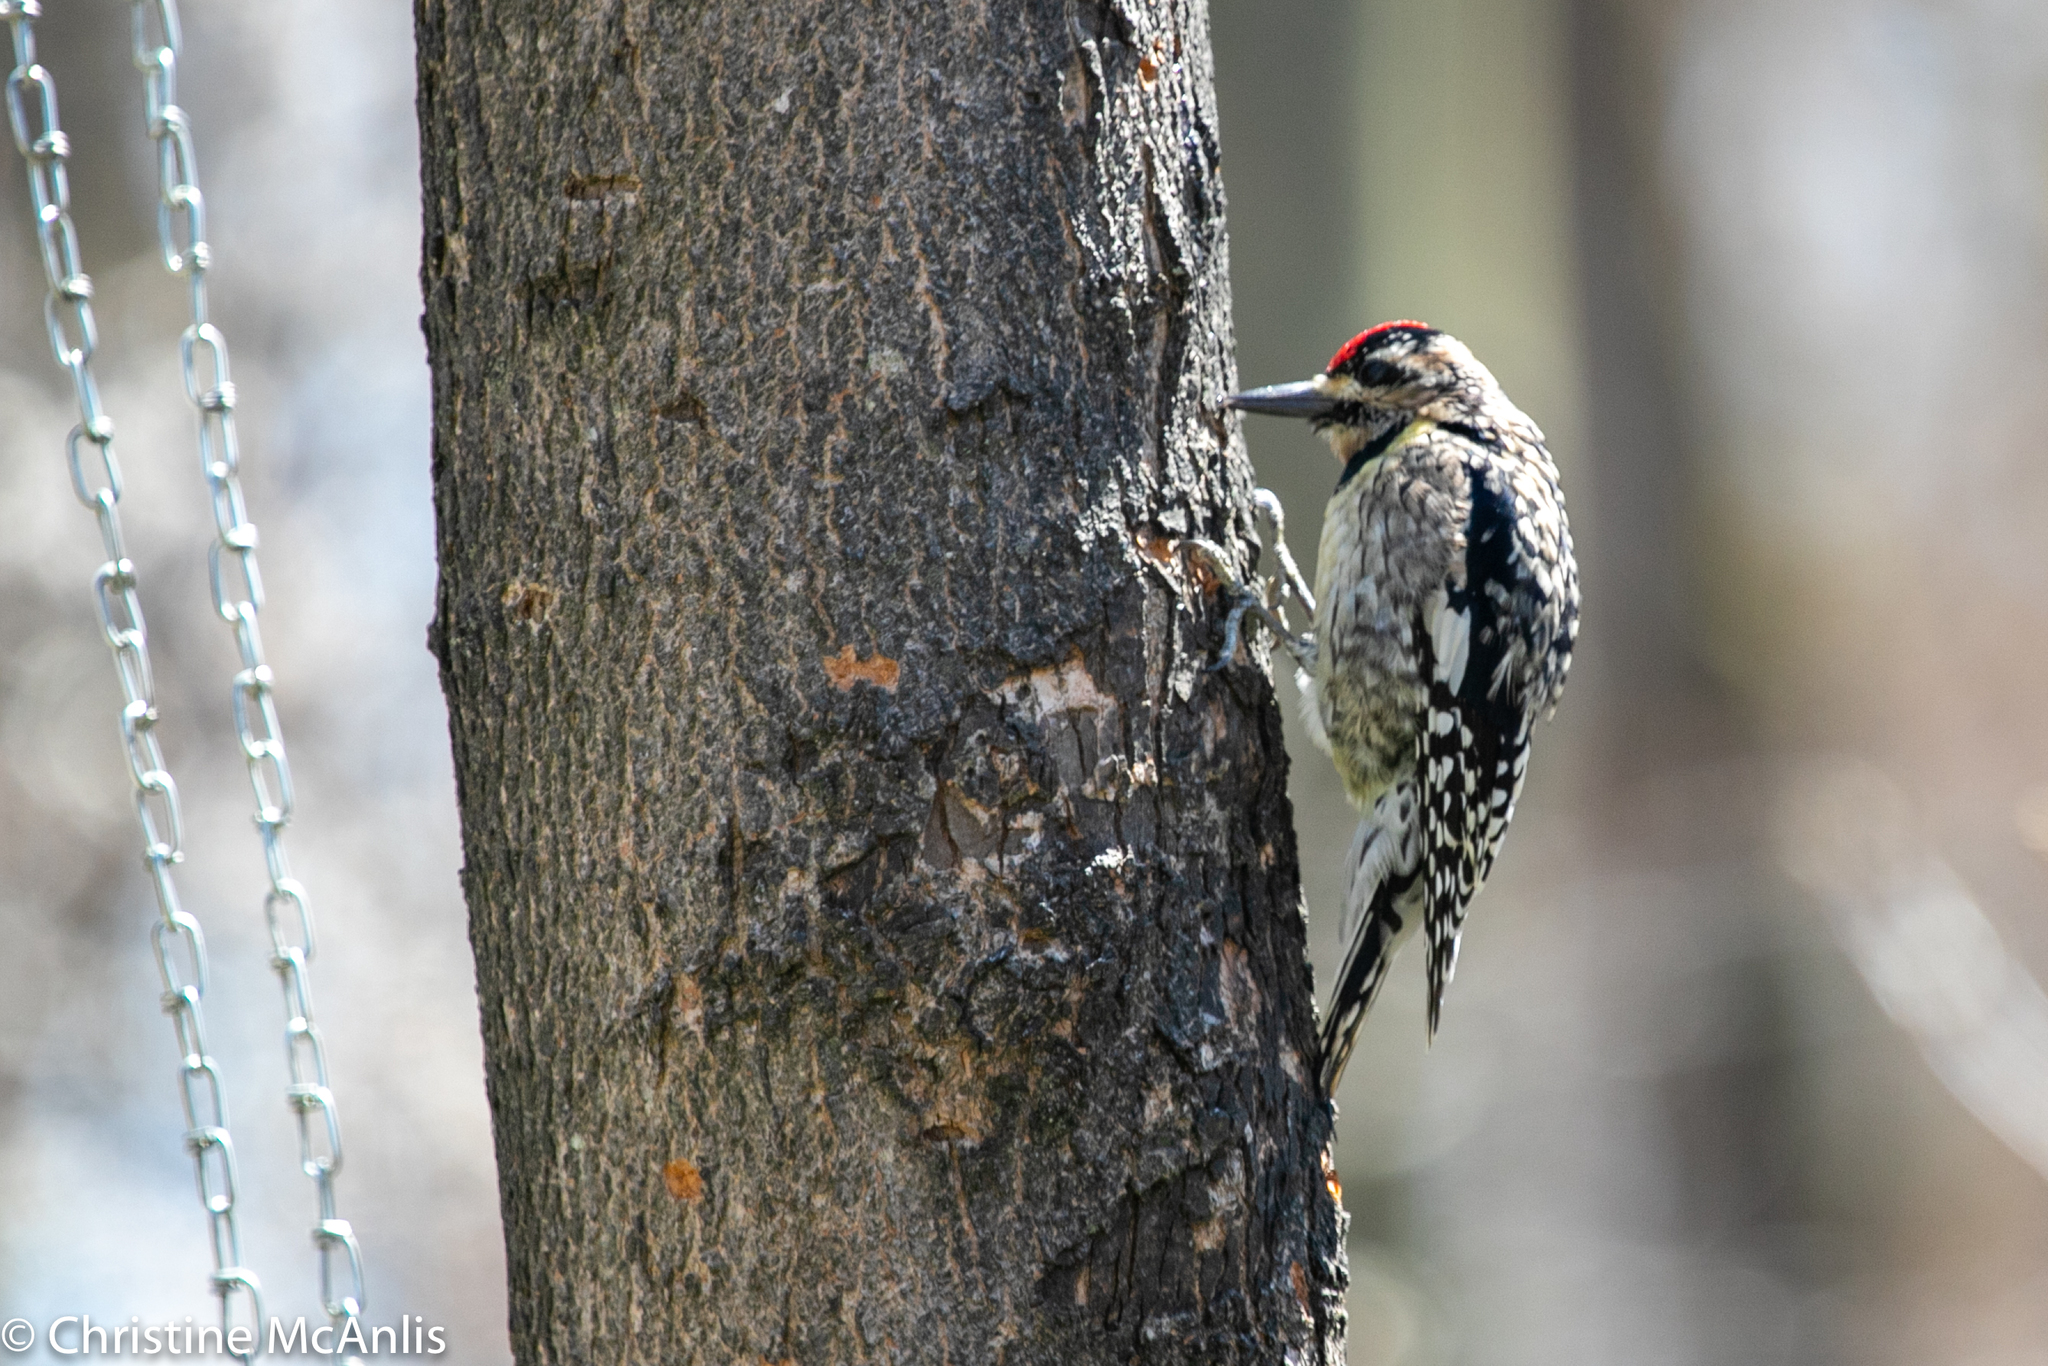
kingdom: Animalia
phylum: Chordata
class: Aves
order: Piciformes
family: Picidae
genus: Sphyrapicus
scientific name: Sphyrapicus varius
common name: Yellow-bellied sapsucker
